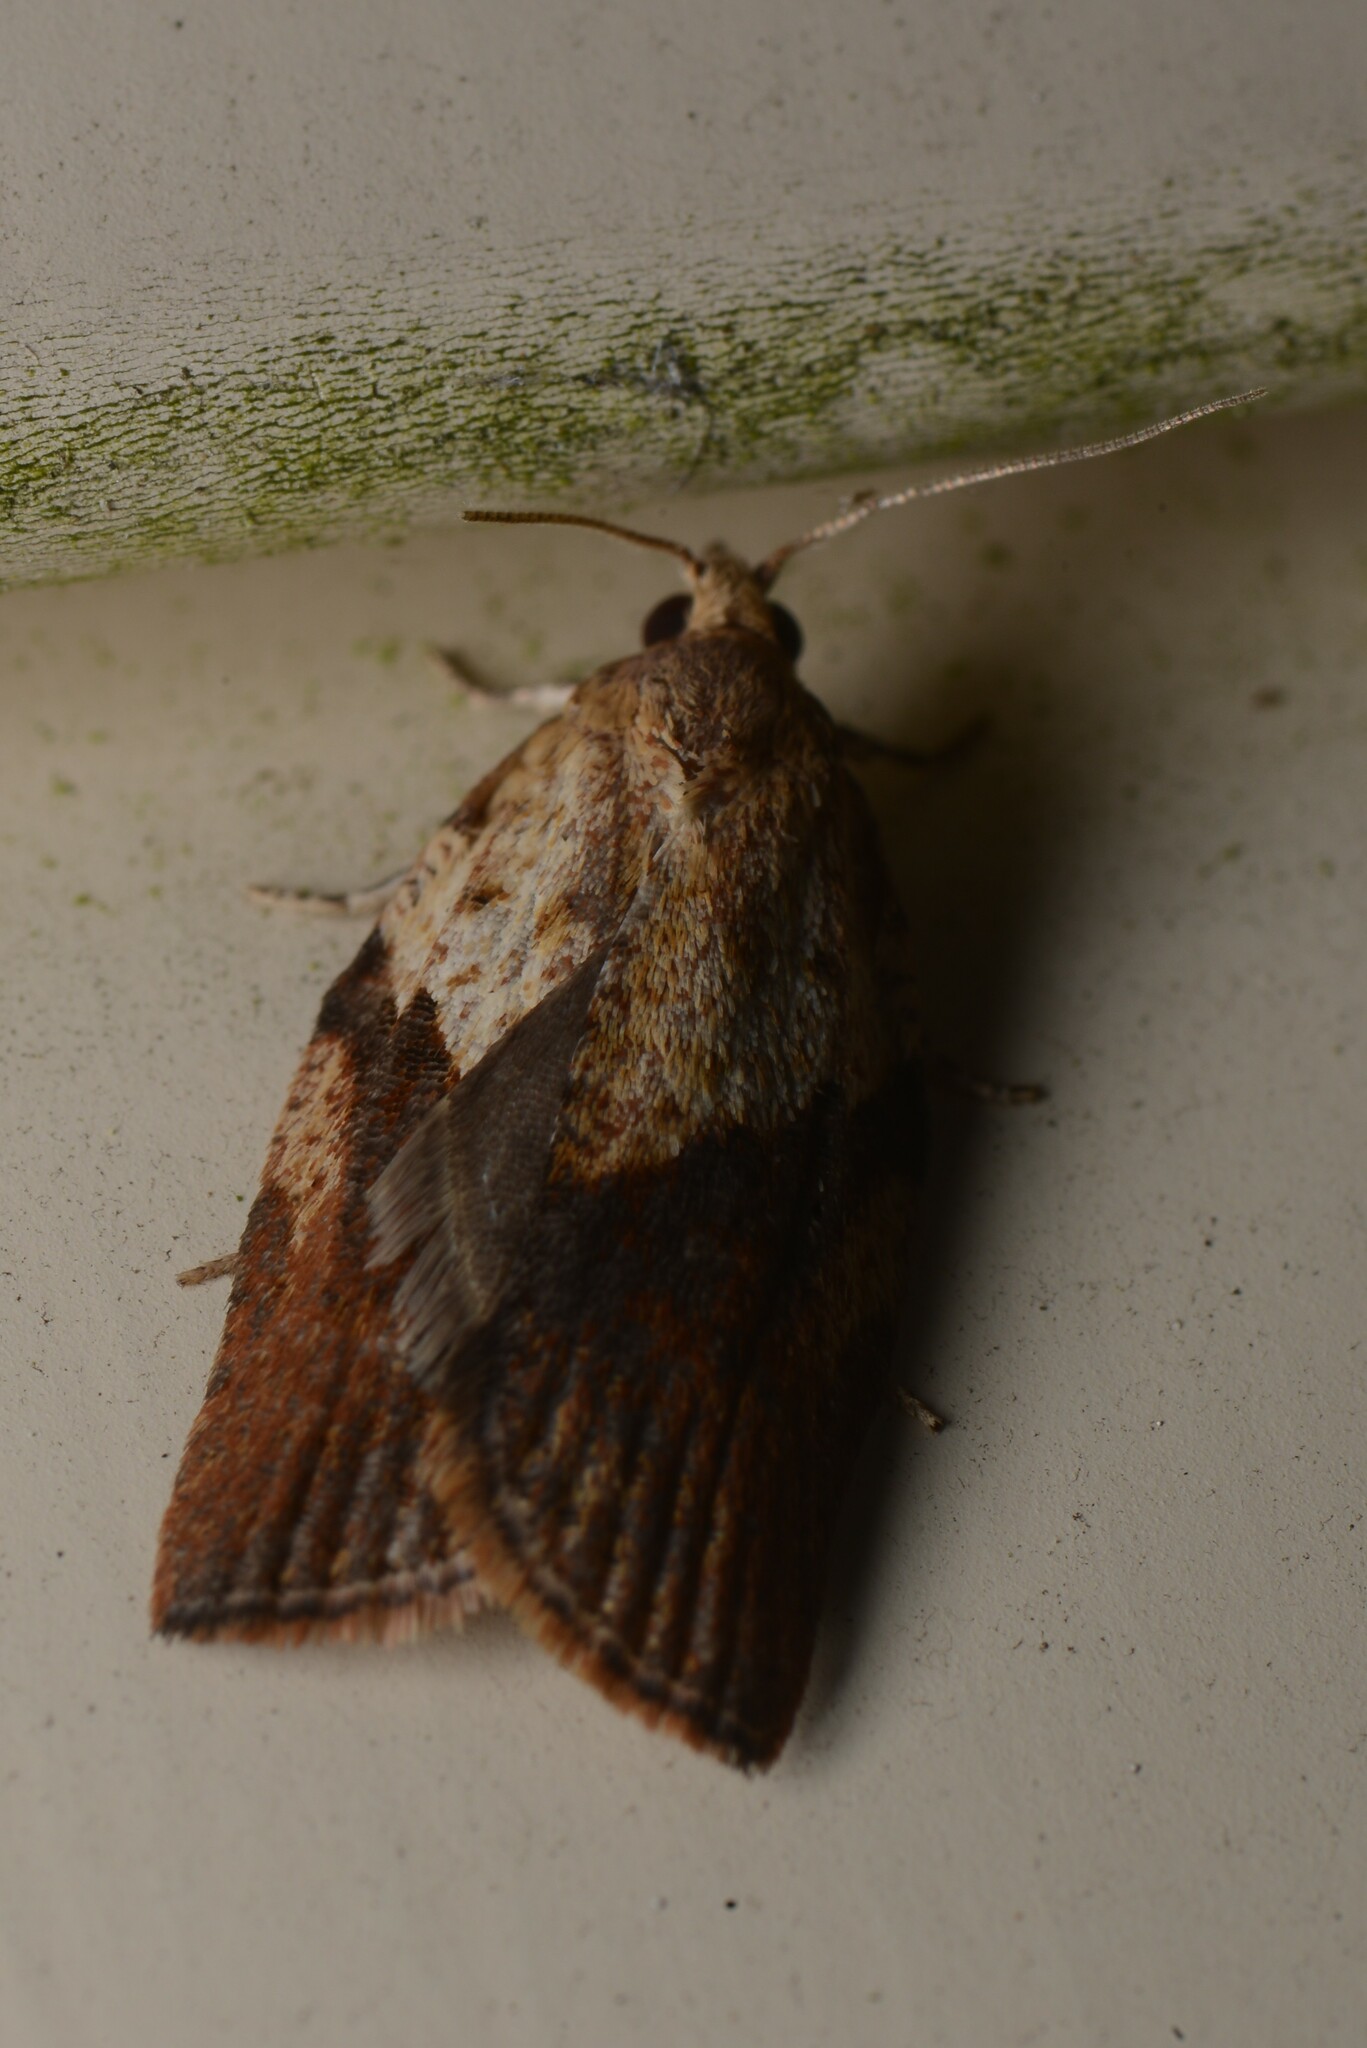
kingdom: Animalia
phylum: Arthropoda
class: Insecta
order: Lepidoptera
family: Tortricidae
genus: Epiphyas
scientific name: Epiphyas postvittana
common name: Light brown apple moth
